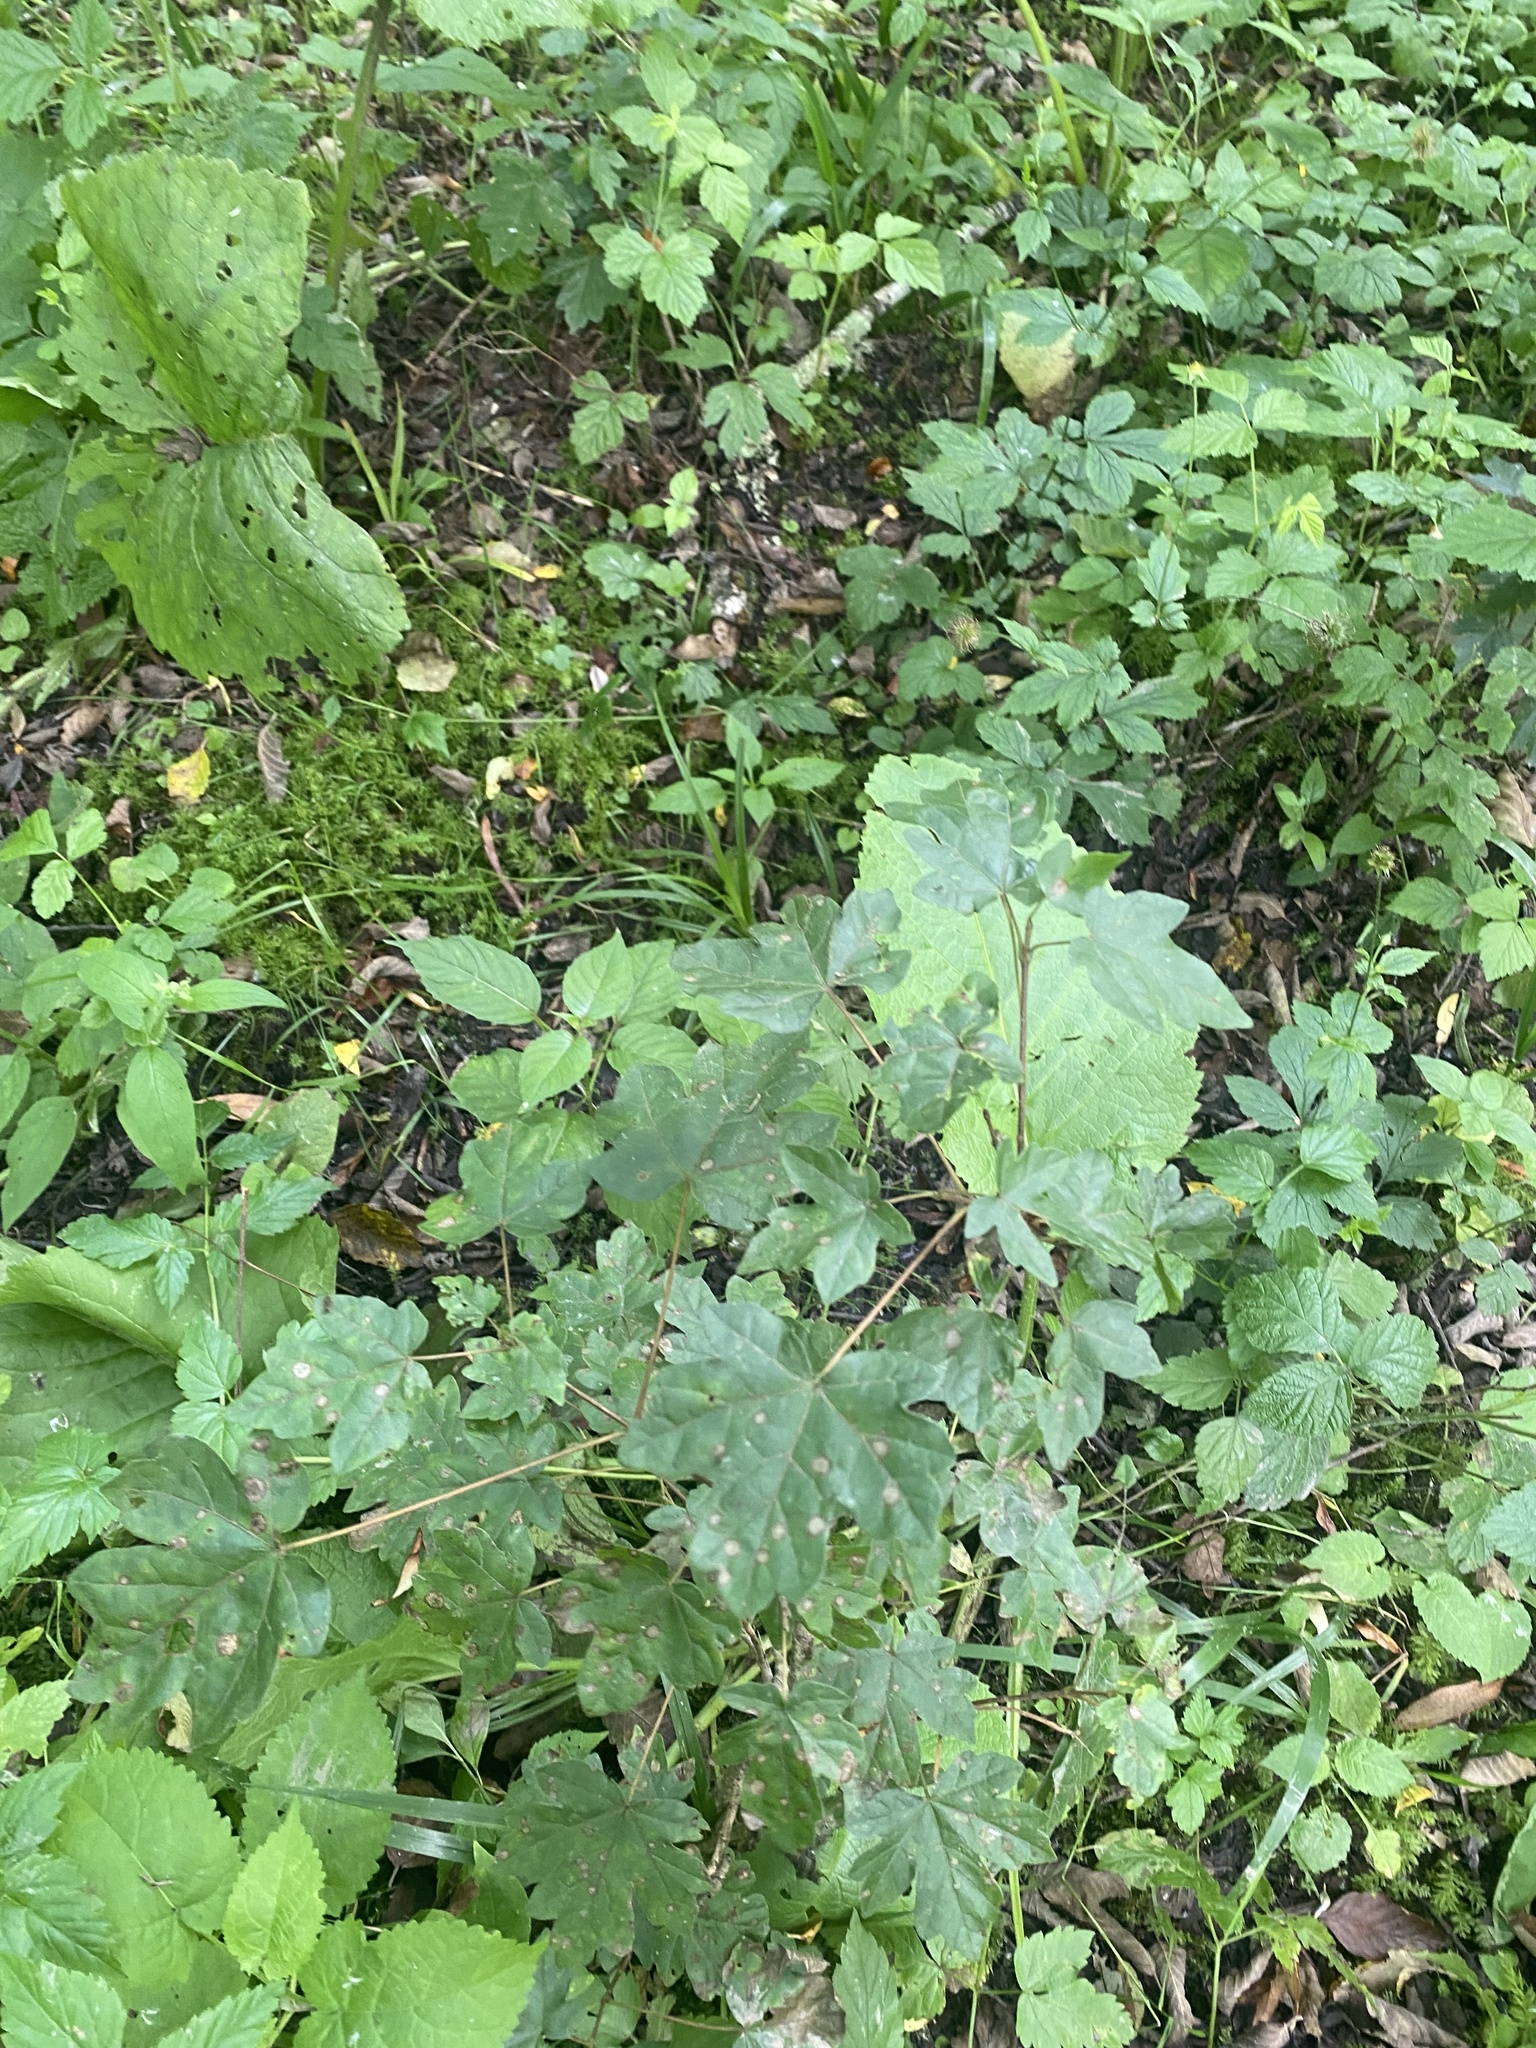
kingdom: Plantae
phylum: Tracheophyta
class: Magnoliopsida
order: Sapindales
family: Sapindaceae
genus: Acer
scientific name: Acer campestre
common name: Field maple
